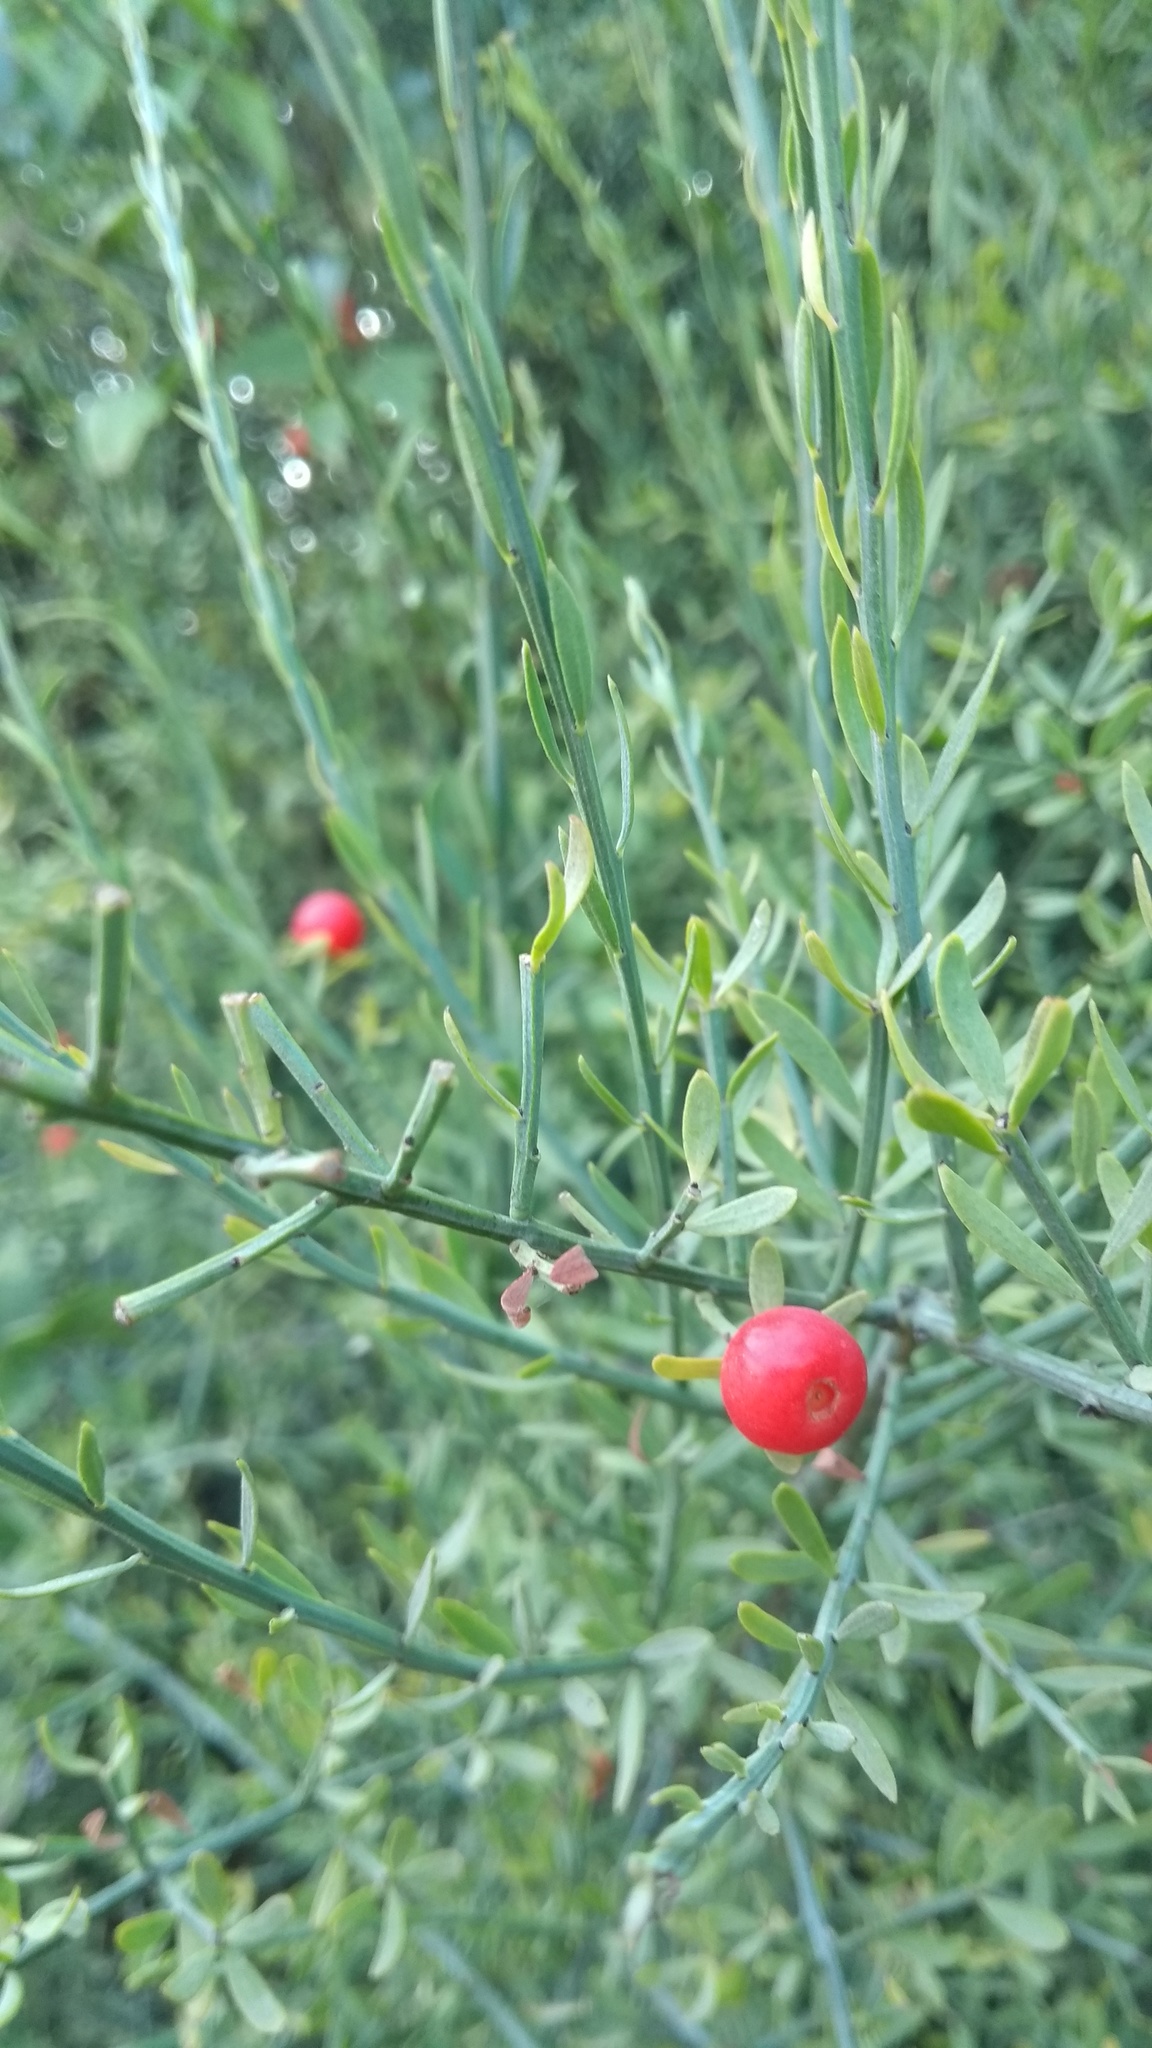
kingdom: Plantae
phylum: Tracheophyta
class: Magnoliopsida
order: Santalales
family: Santalaceae
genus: Osyris
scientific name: Osyris alba
